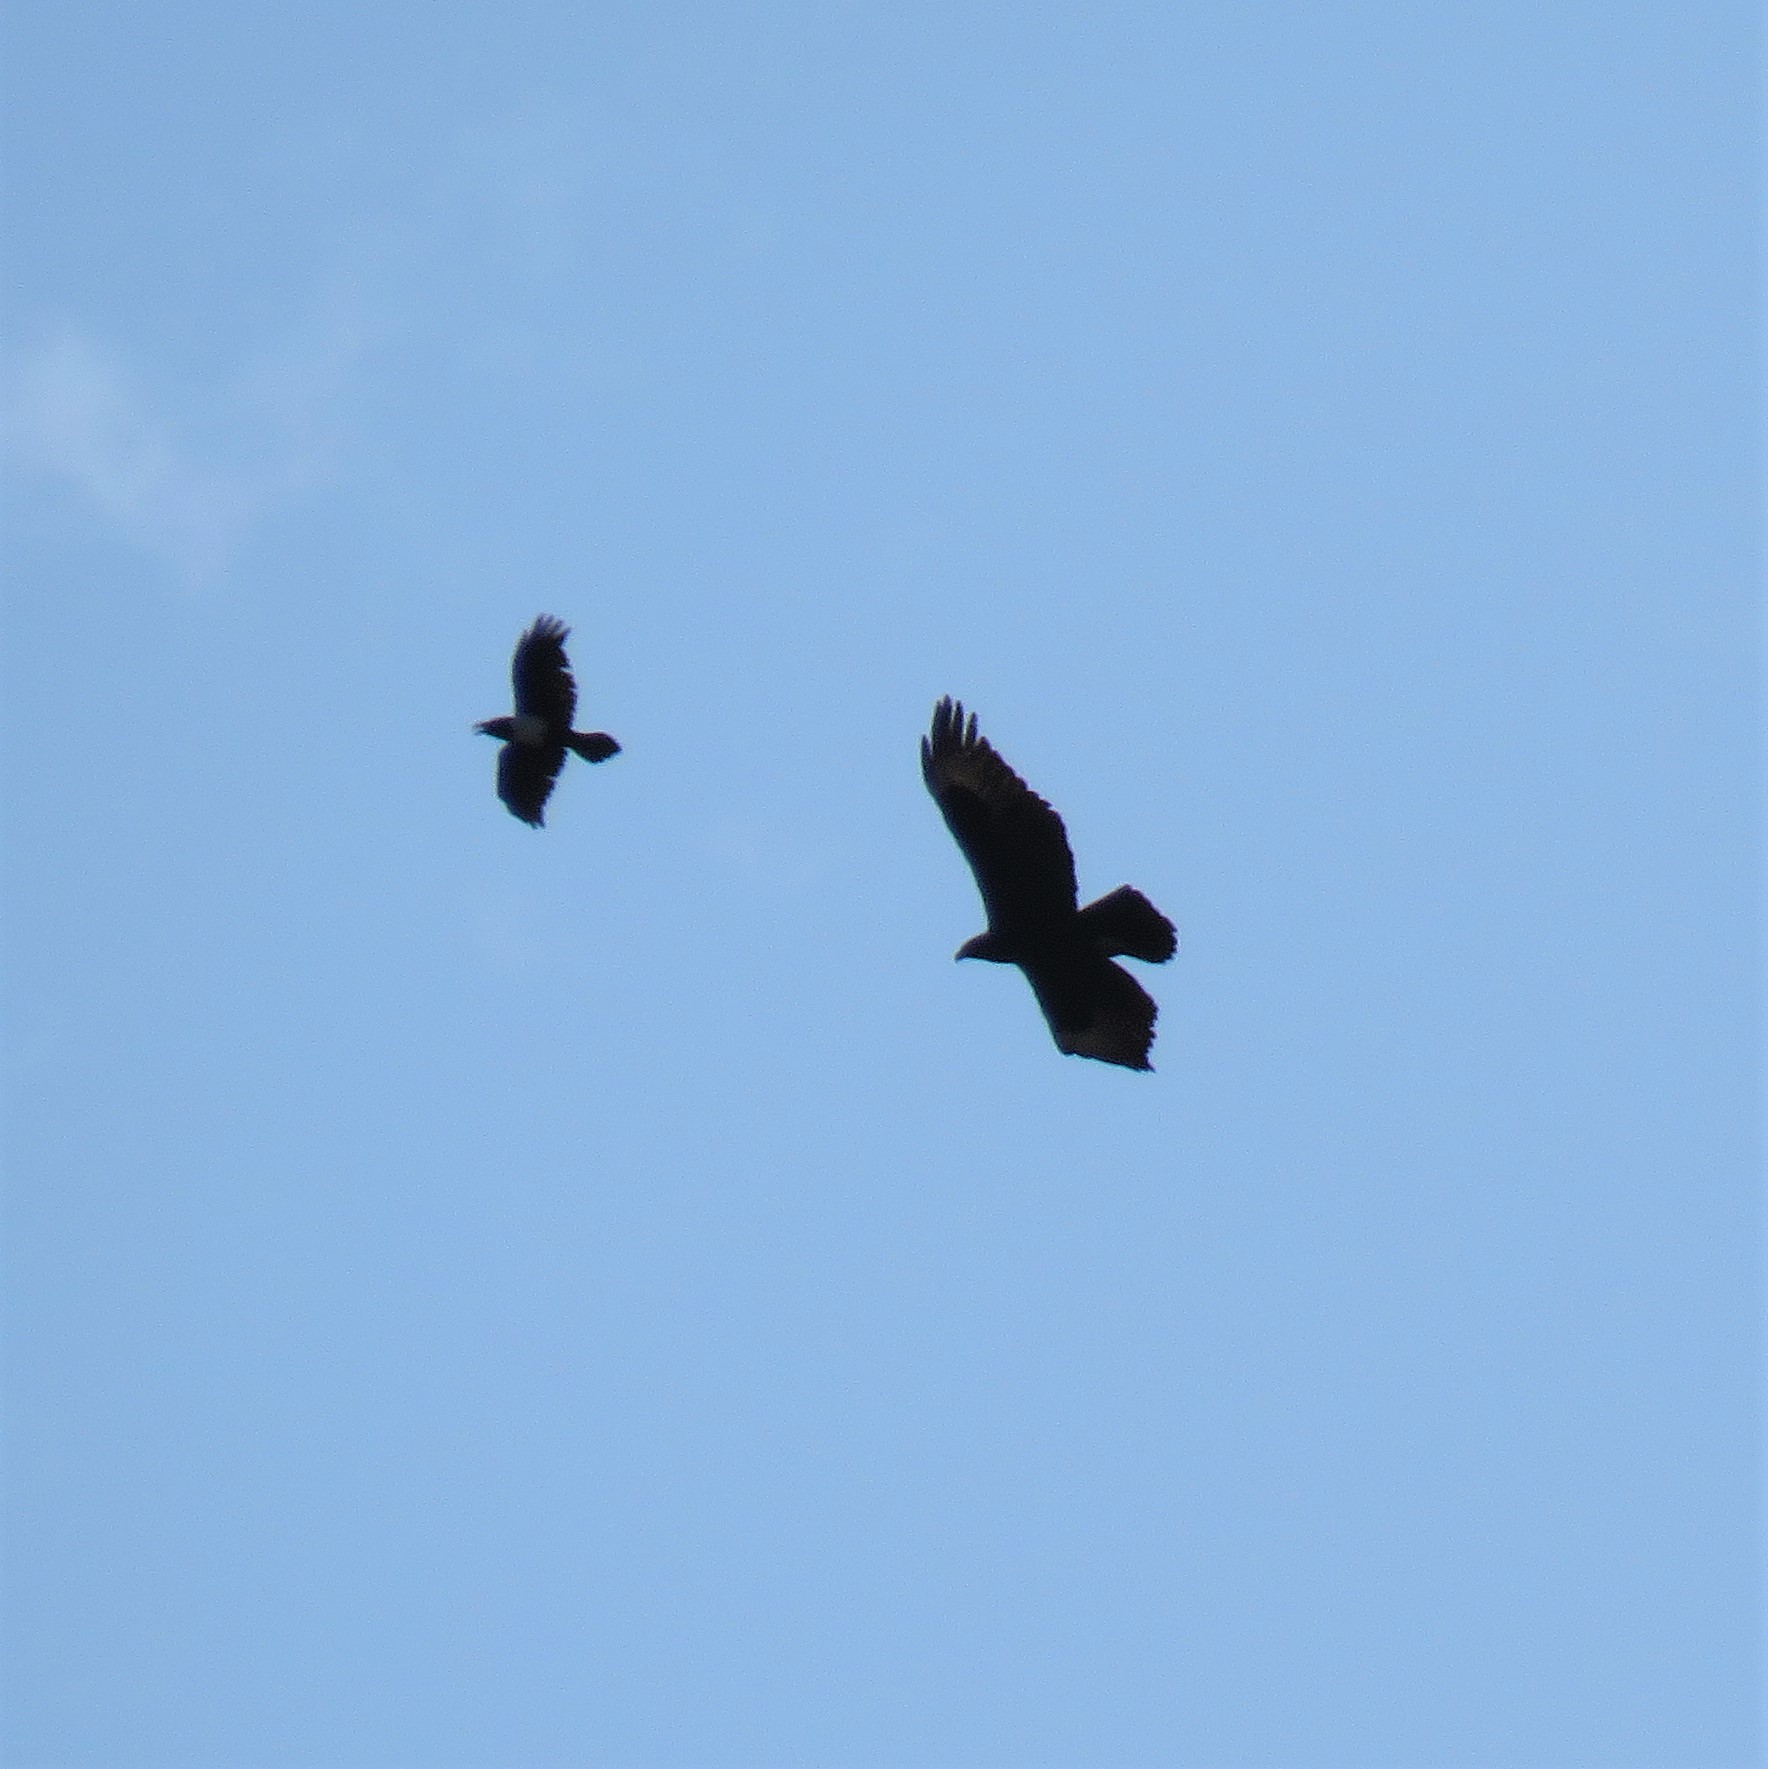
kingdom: Animalia
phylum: Chordata
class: Aves
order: Accipitriformes
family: Accipitridae
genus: Aquila
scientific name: Aquila verreauxii
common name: Verreaux's eagle
